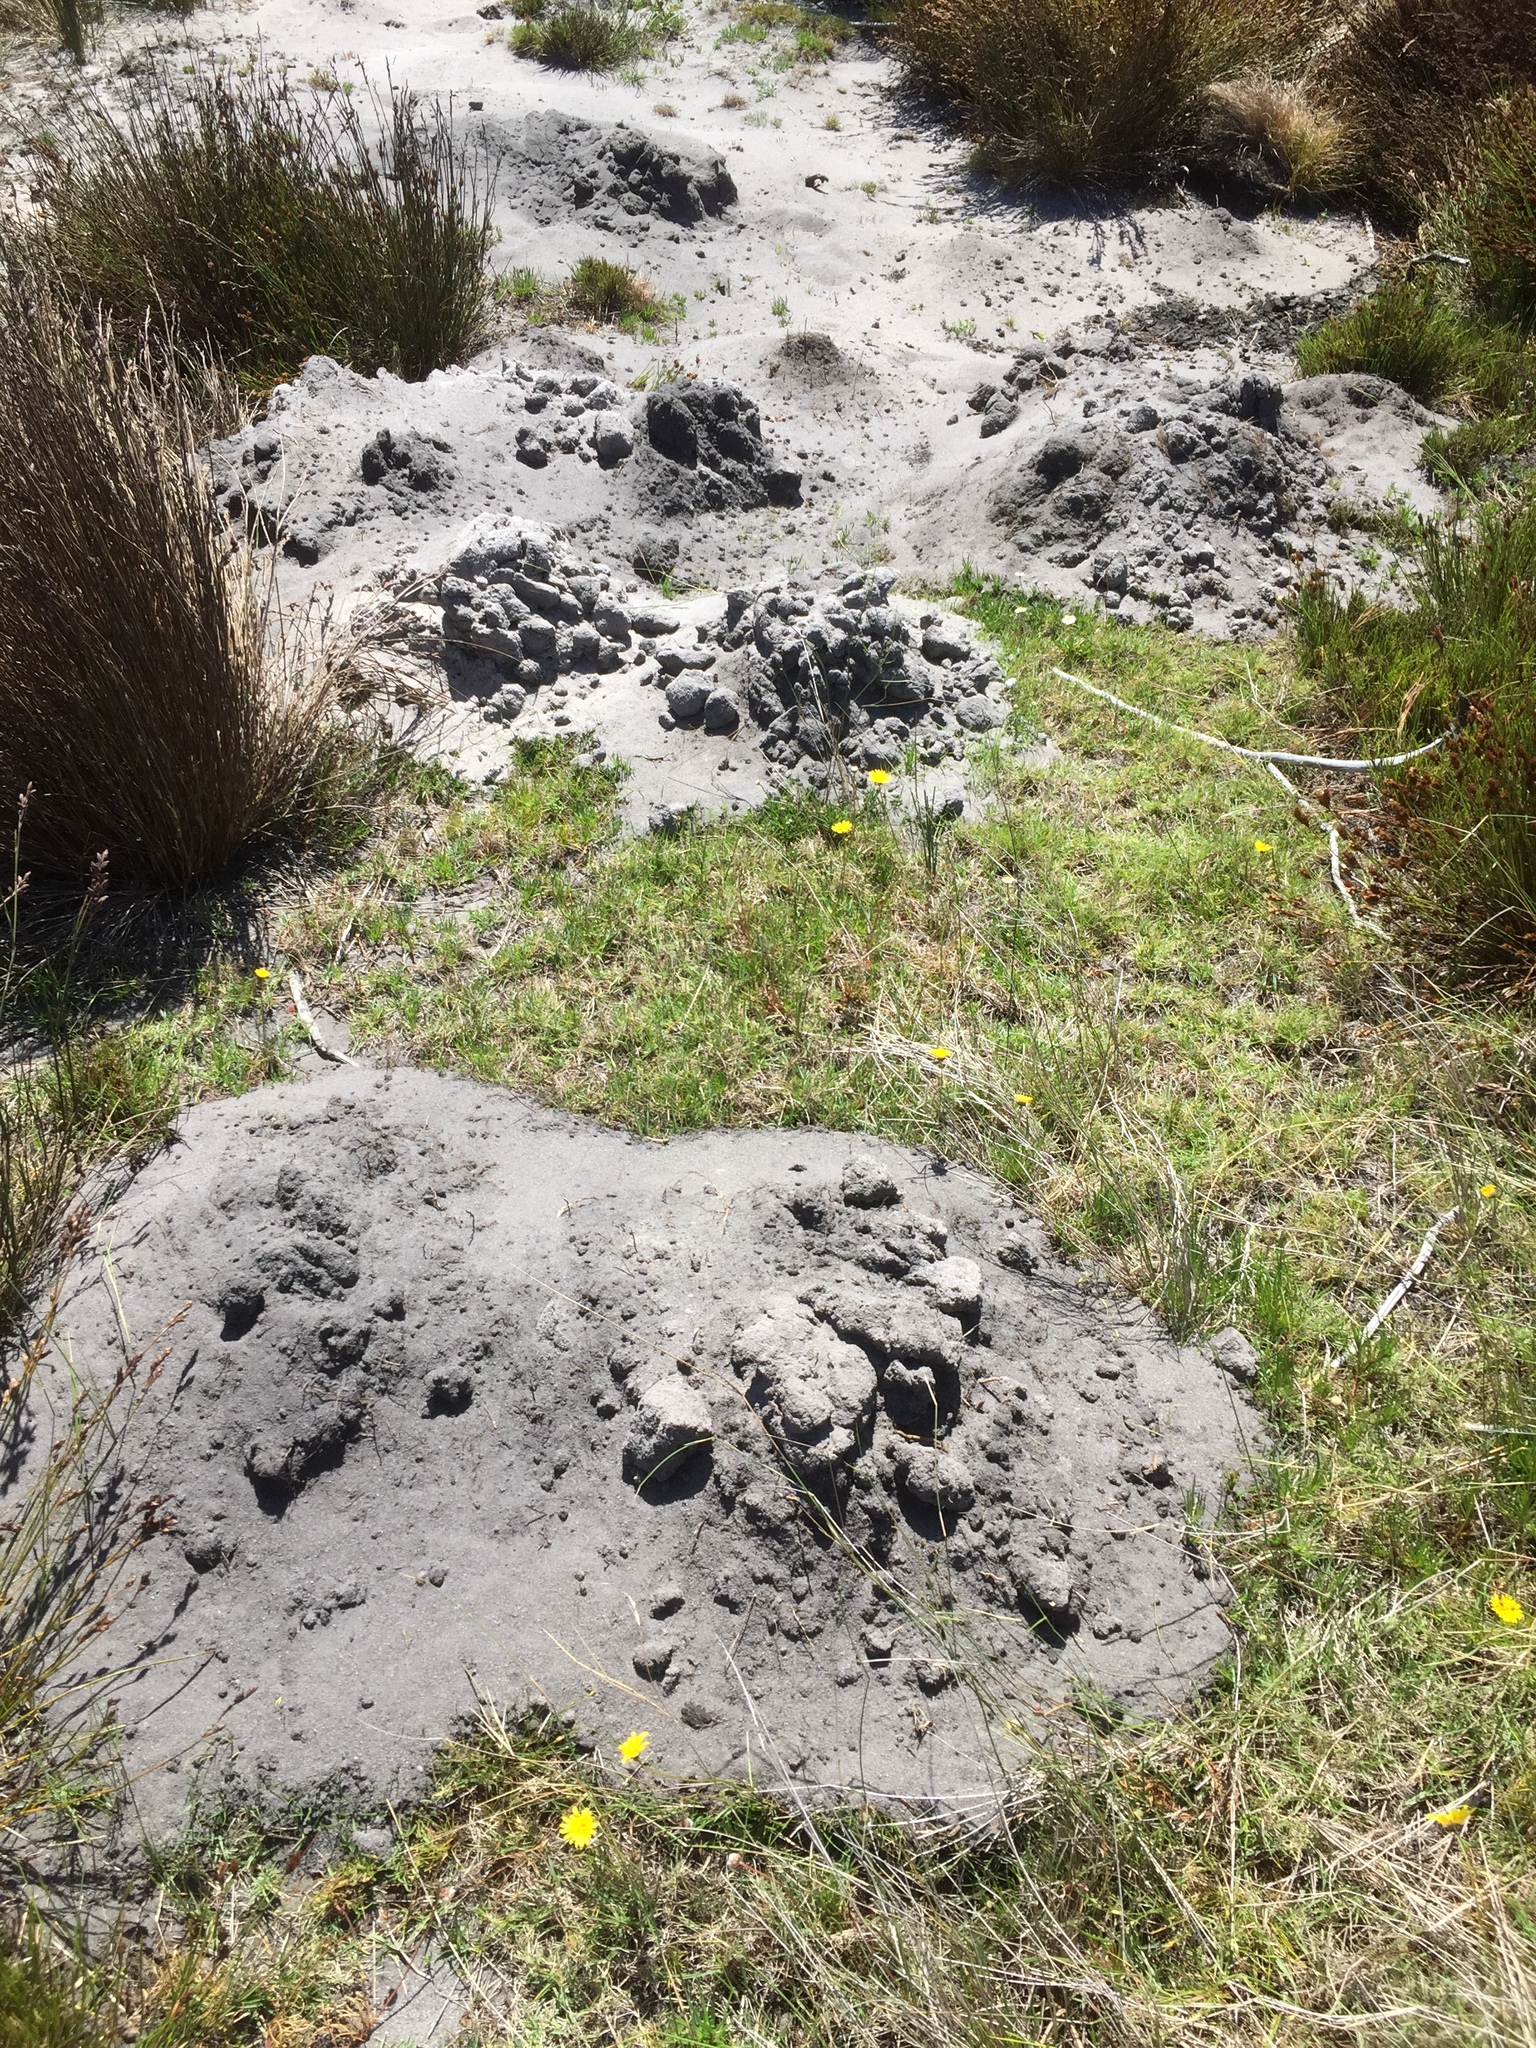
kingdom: Animalia
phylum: Chordata
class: Mammalia
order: Rodentia
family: Bathyergidae
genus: Bathyergus
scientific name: Bathyergus suillus
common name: Cape dune mole rat
